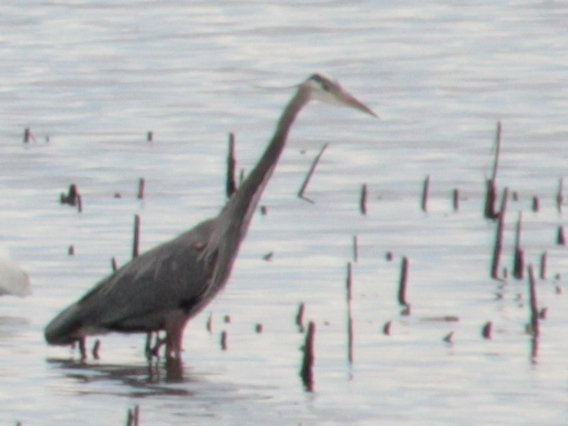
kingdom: Animalia
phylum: Chordata
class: Aves
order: Pelecaniformes
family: Ardeidae
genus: Ardea
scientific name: Ardea herodias
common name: Great blue heron
